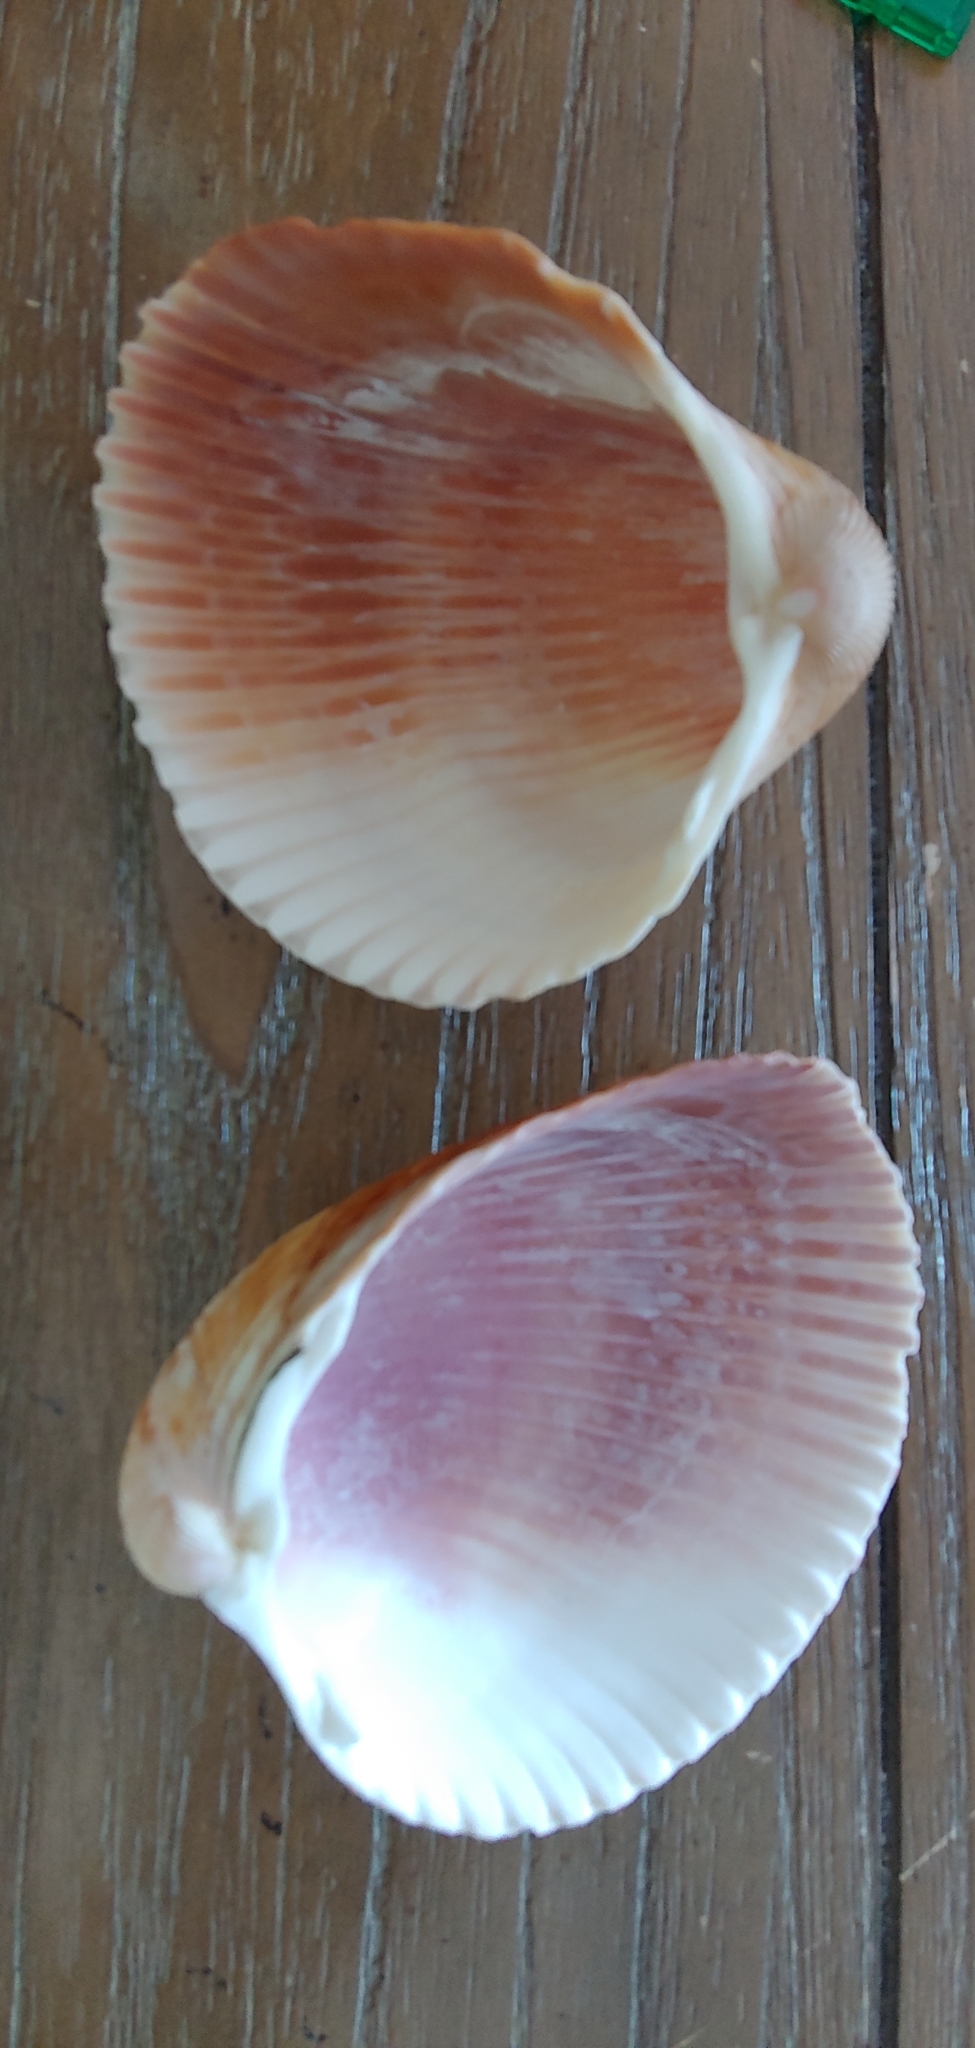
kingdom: Animalia
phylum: Mollusca
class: Bivalvia
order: Cardiida
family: Cardiidae
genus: Dinocardium
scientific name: Dinocardium robustum
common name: Atlantic giant cockle
